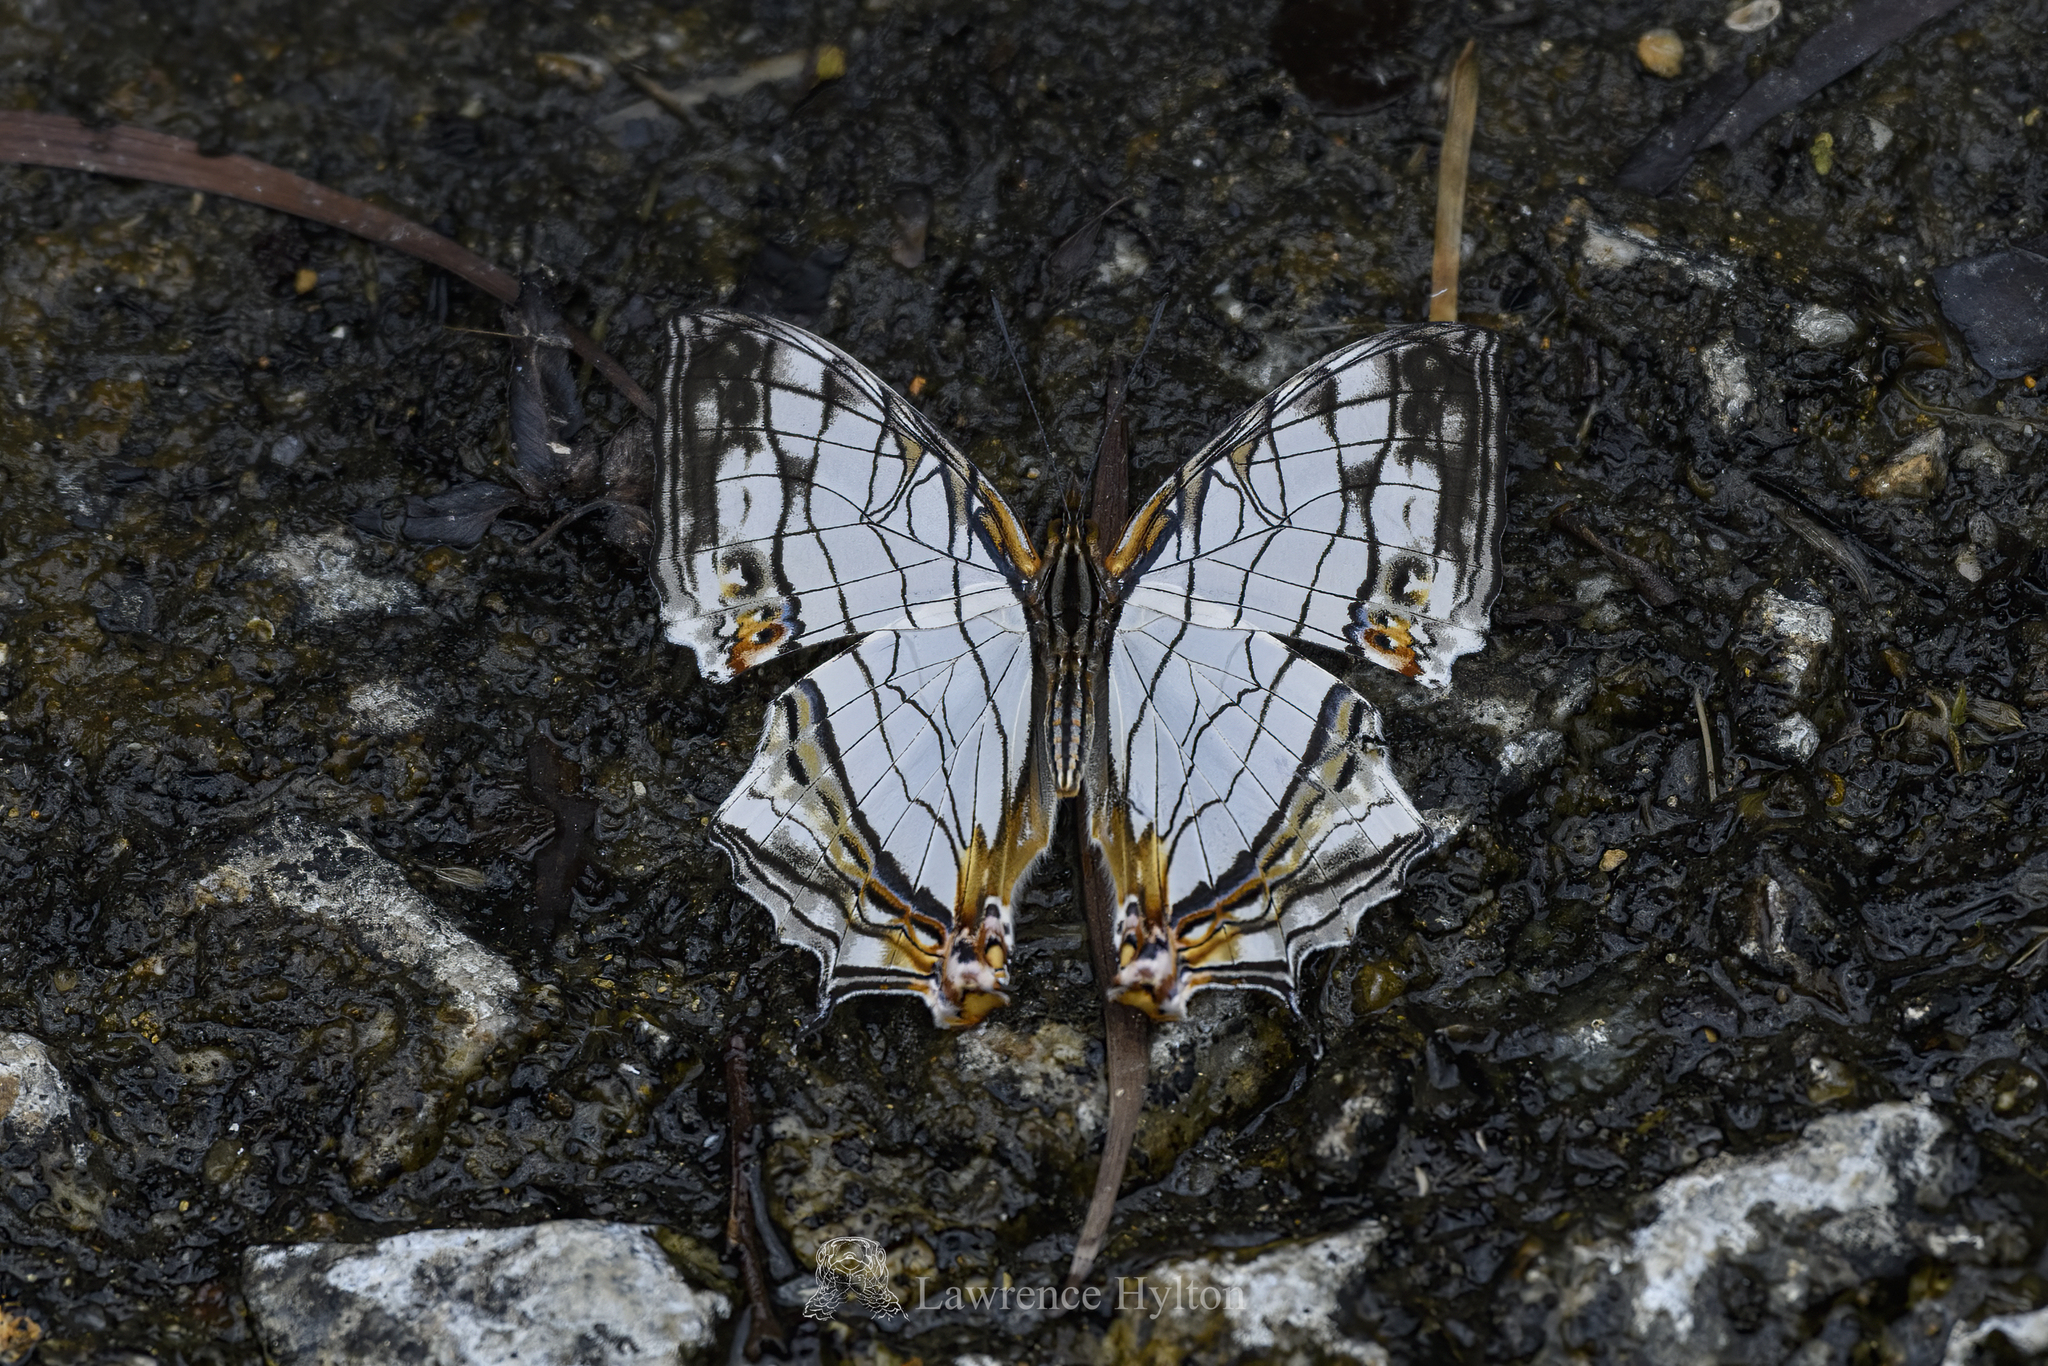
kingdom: Animalia
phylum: Arthropoda
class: Insecta
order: Lepidoptera
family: Nymphalidae
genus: Cyrestis
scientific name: Cyrestis thyodamas
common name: Common mapwing
